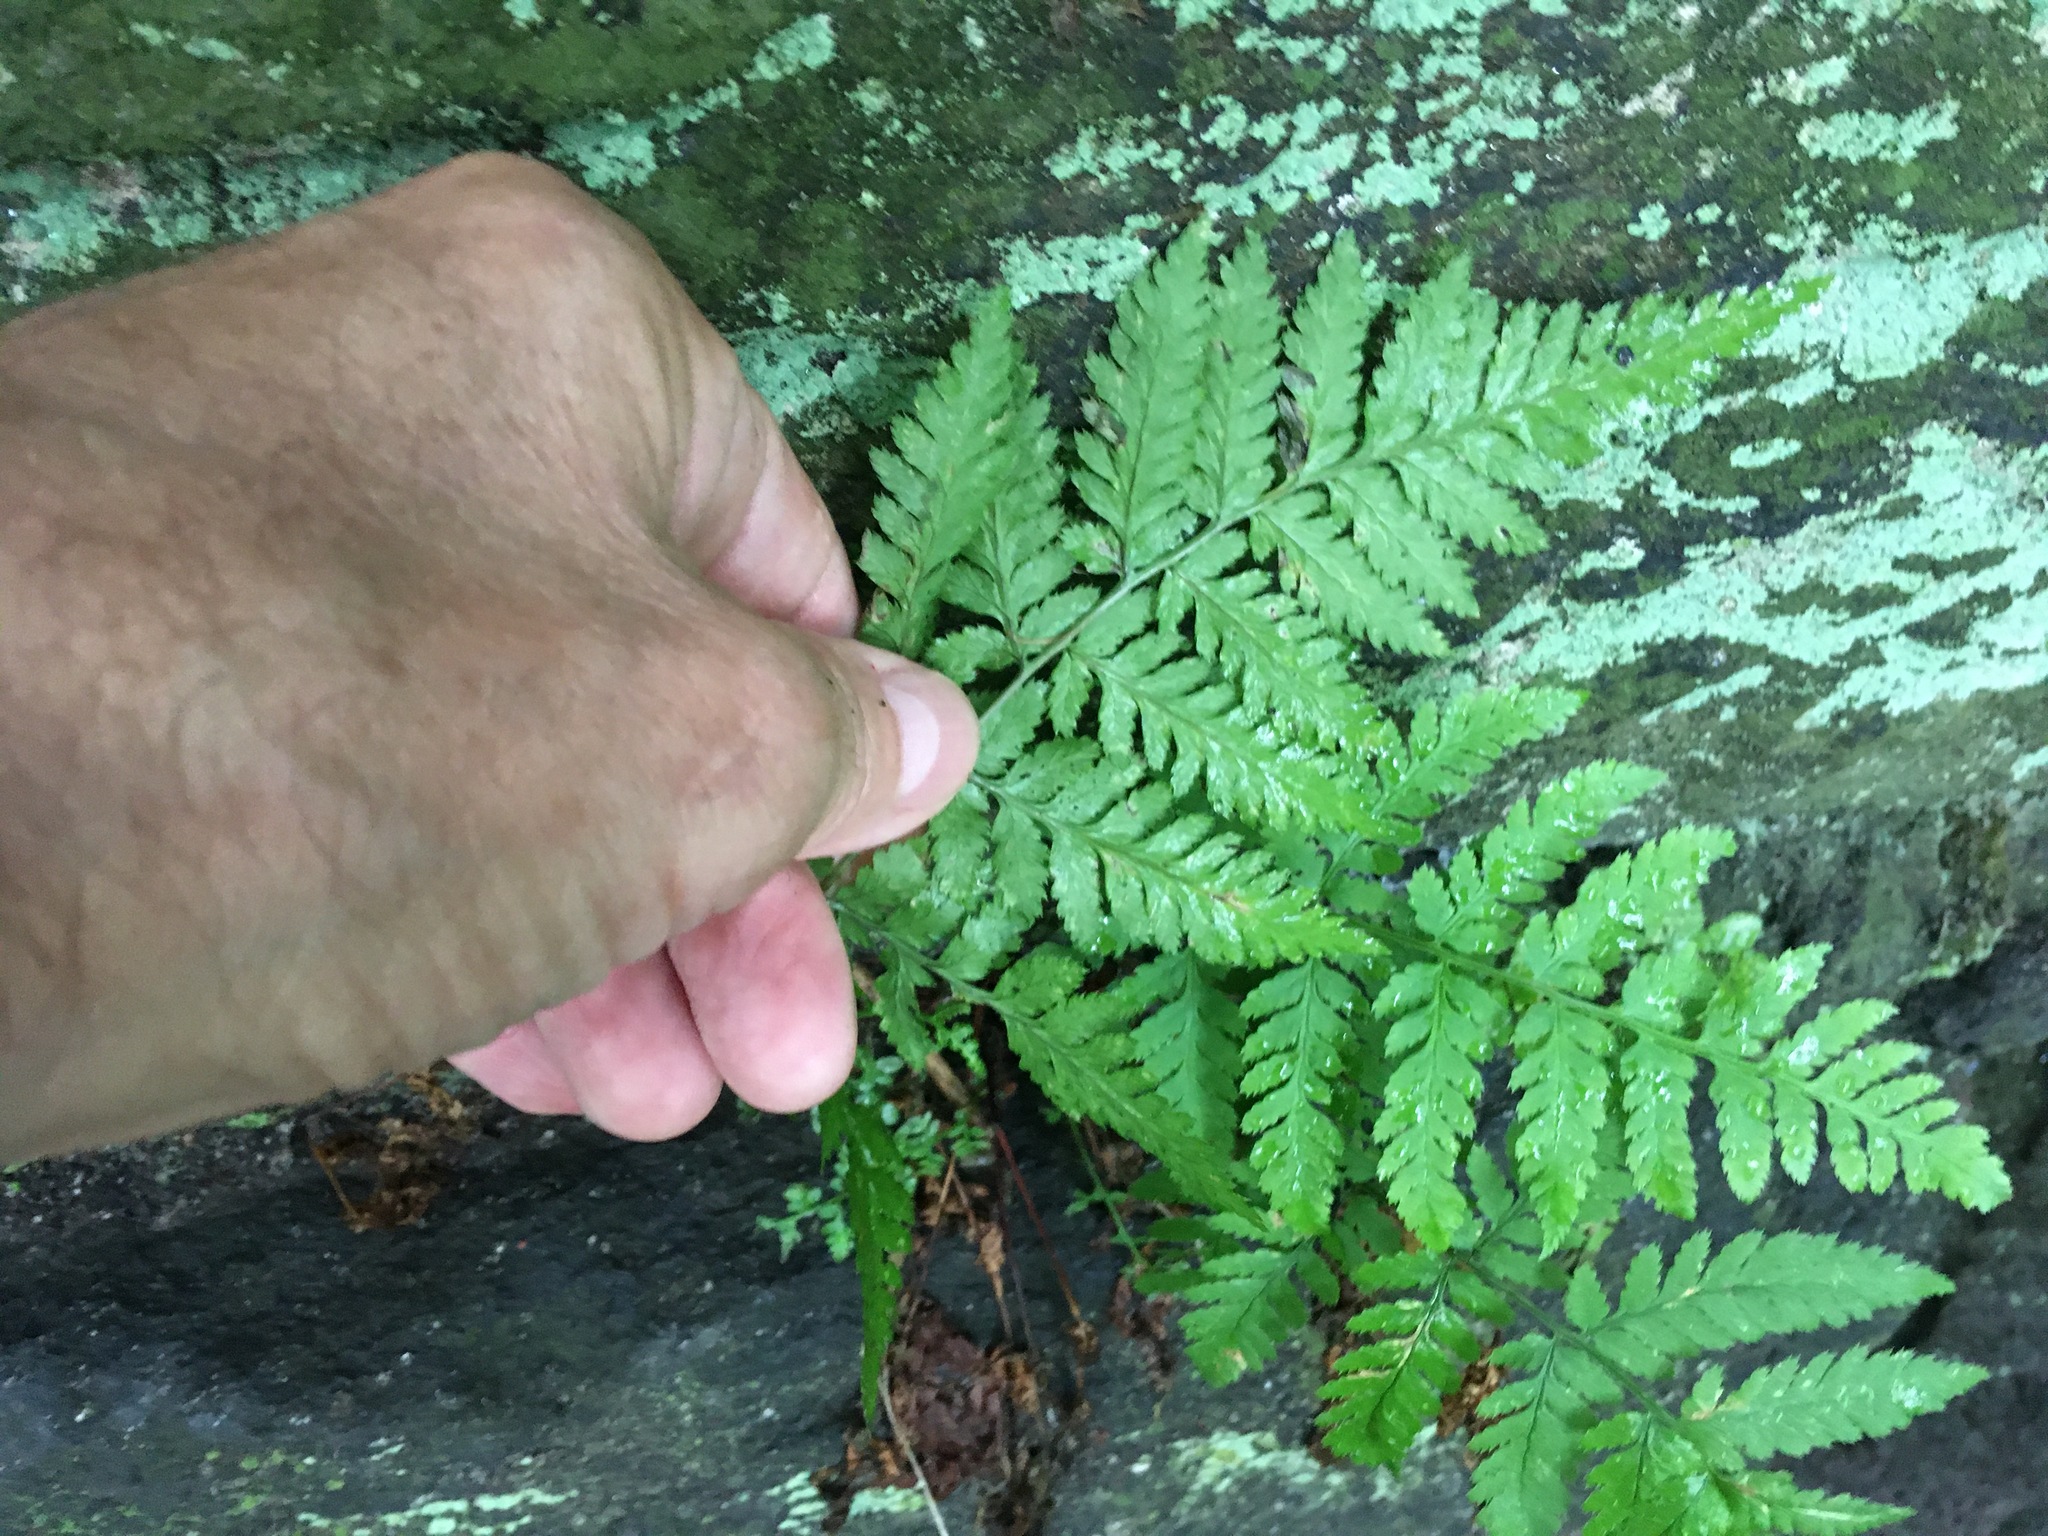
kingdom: Plantae
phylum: Tracheophyta
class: Polypodiopsida
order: Polypodiales
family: Dryopteridaceae
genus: Dryopteris
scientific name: Dryopteris carthusiana
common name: Narrow buckler-fern
